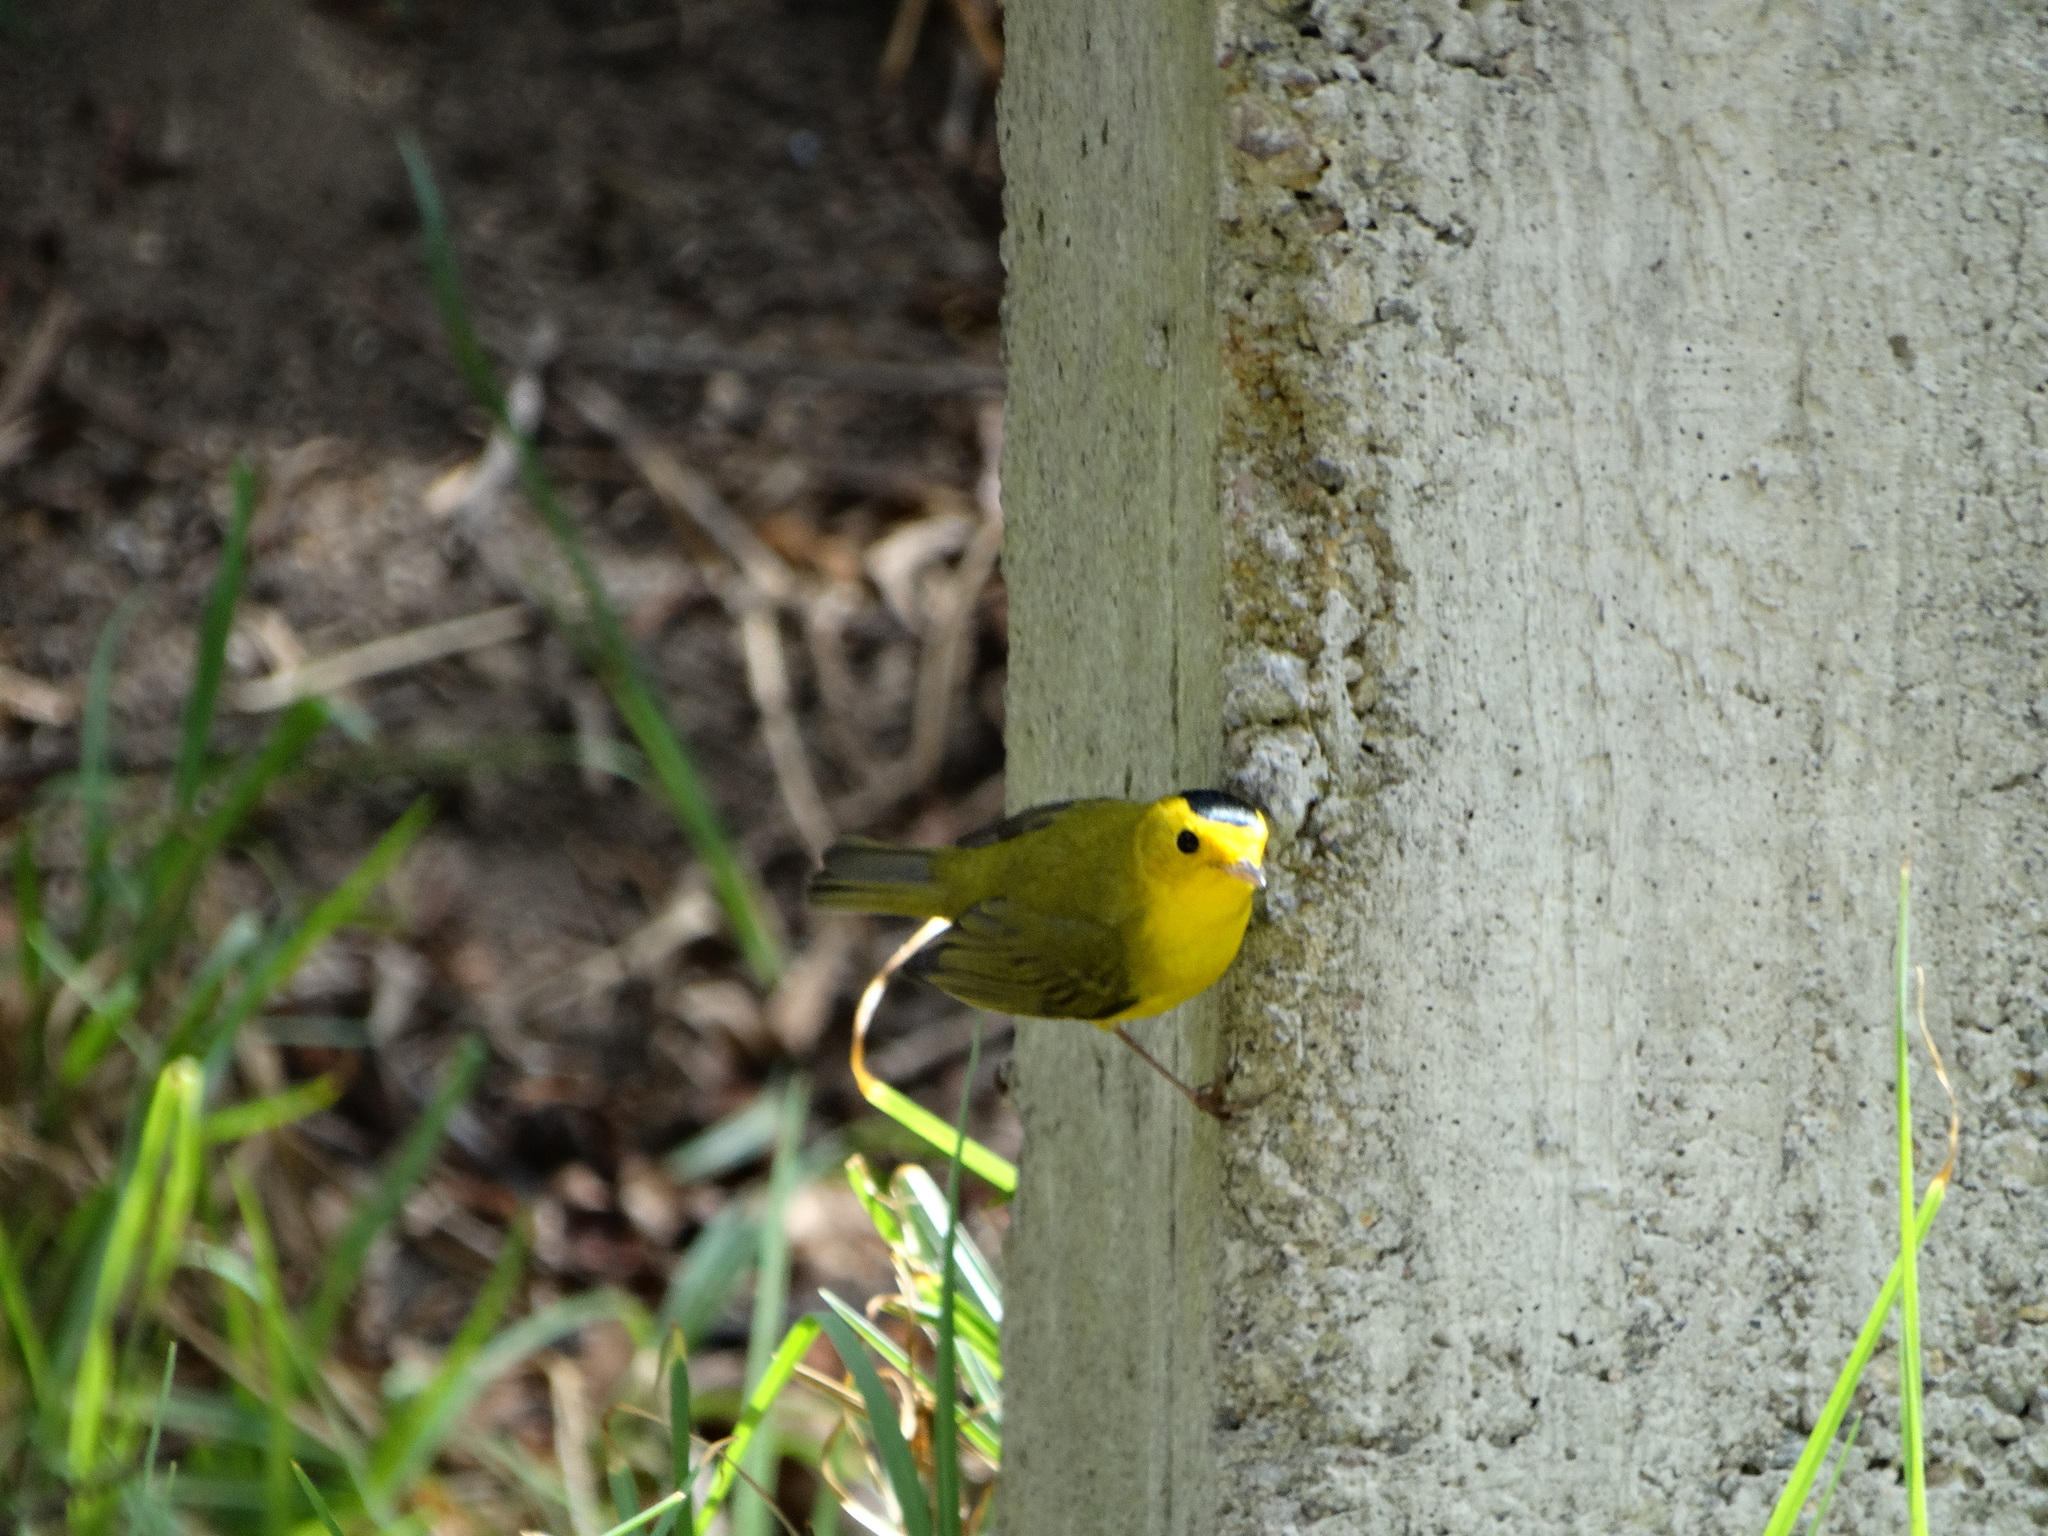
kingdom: Animalia
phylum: Chordata
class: Aves
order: Passeriformes
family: Parulidae
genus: Cardellina
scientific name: Cardellina pusilla
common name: Wilson's warbler
